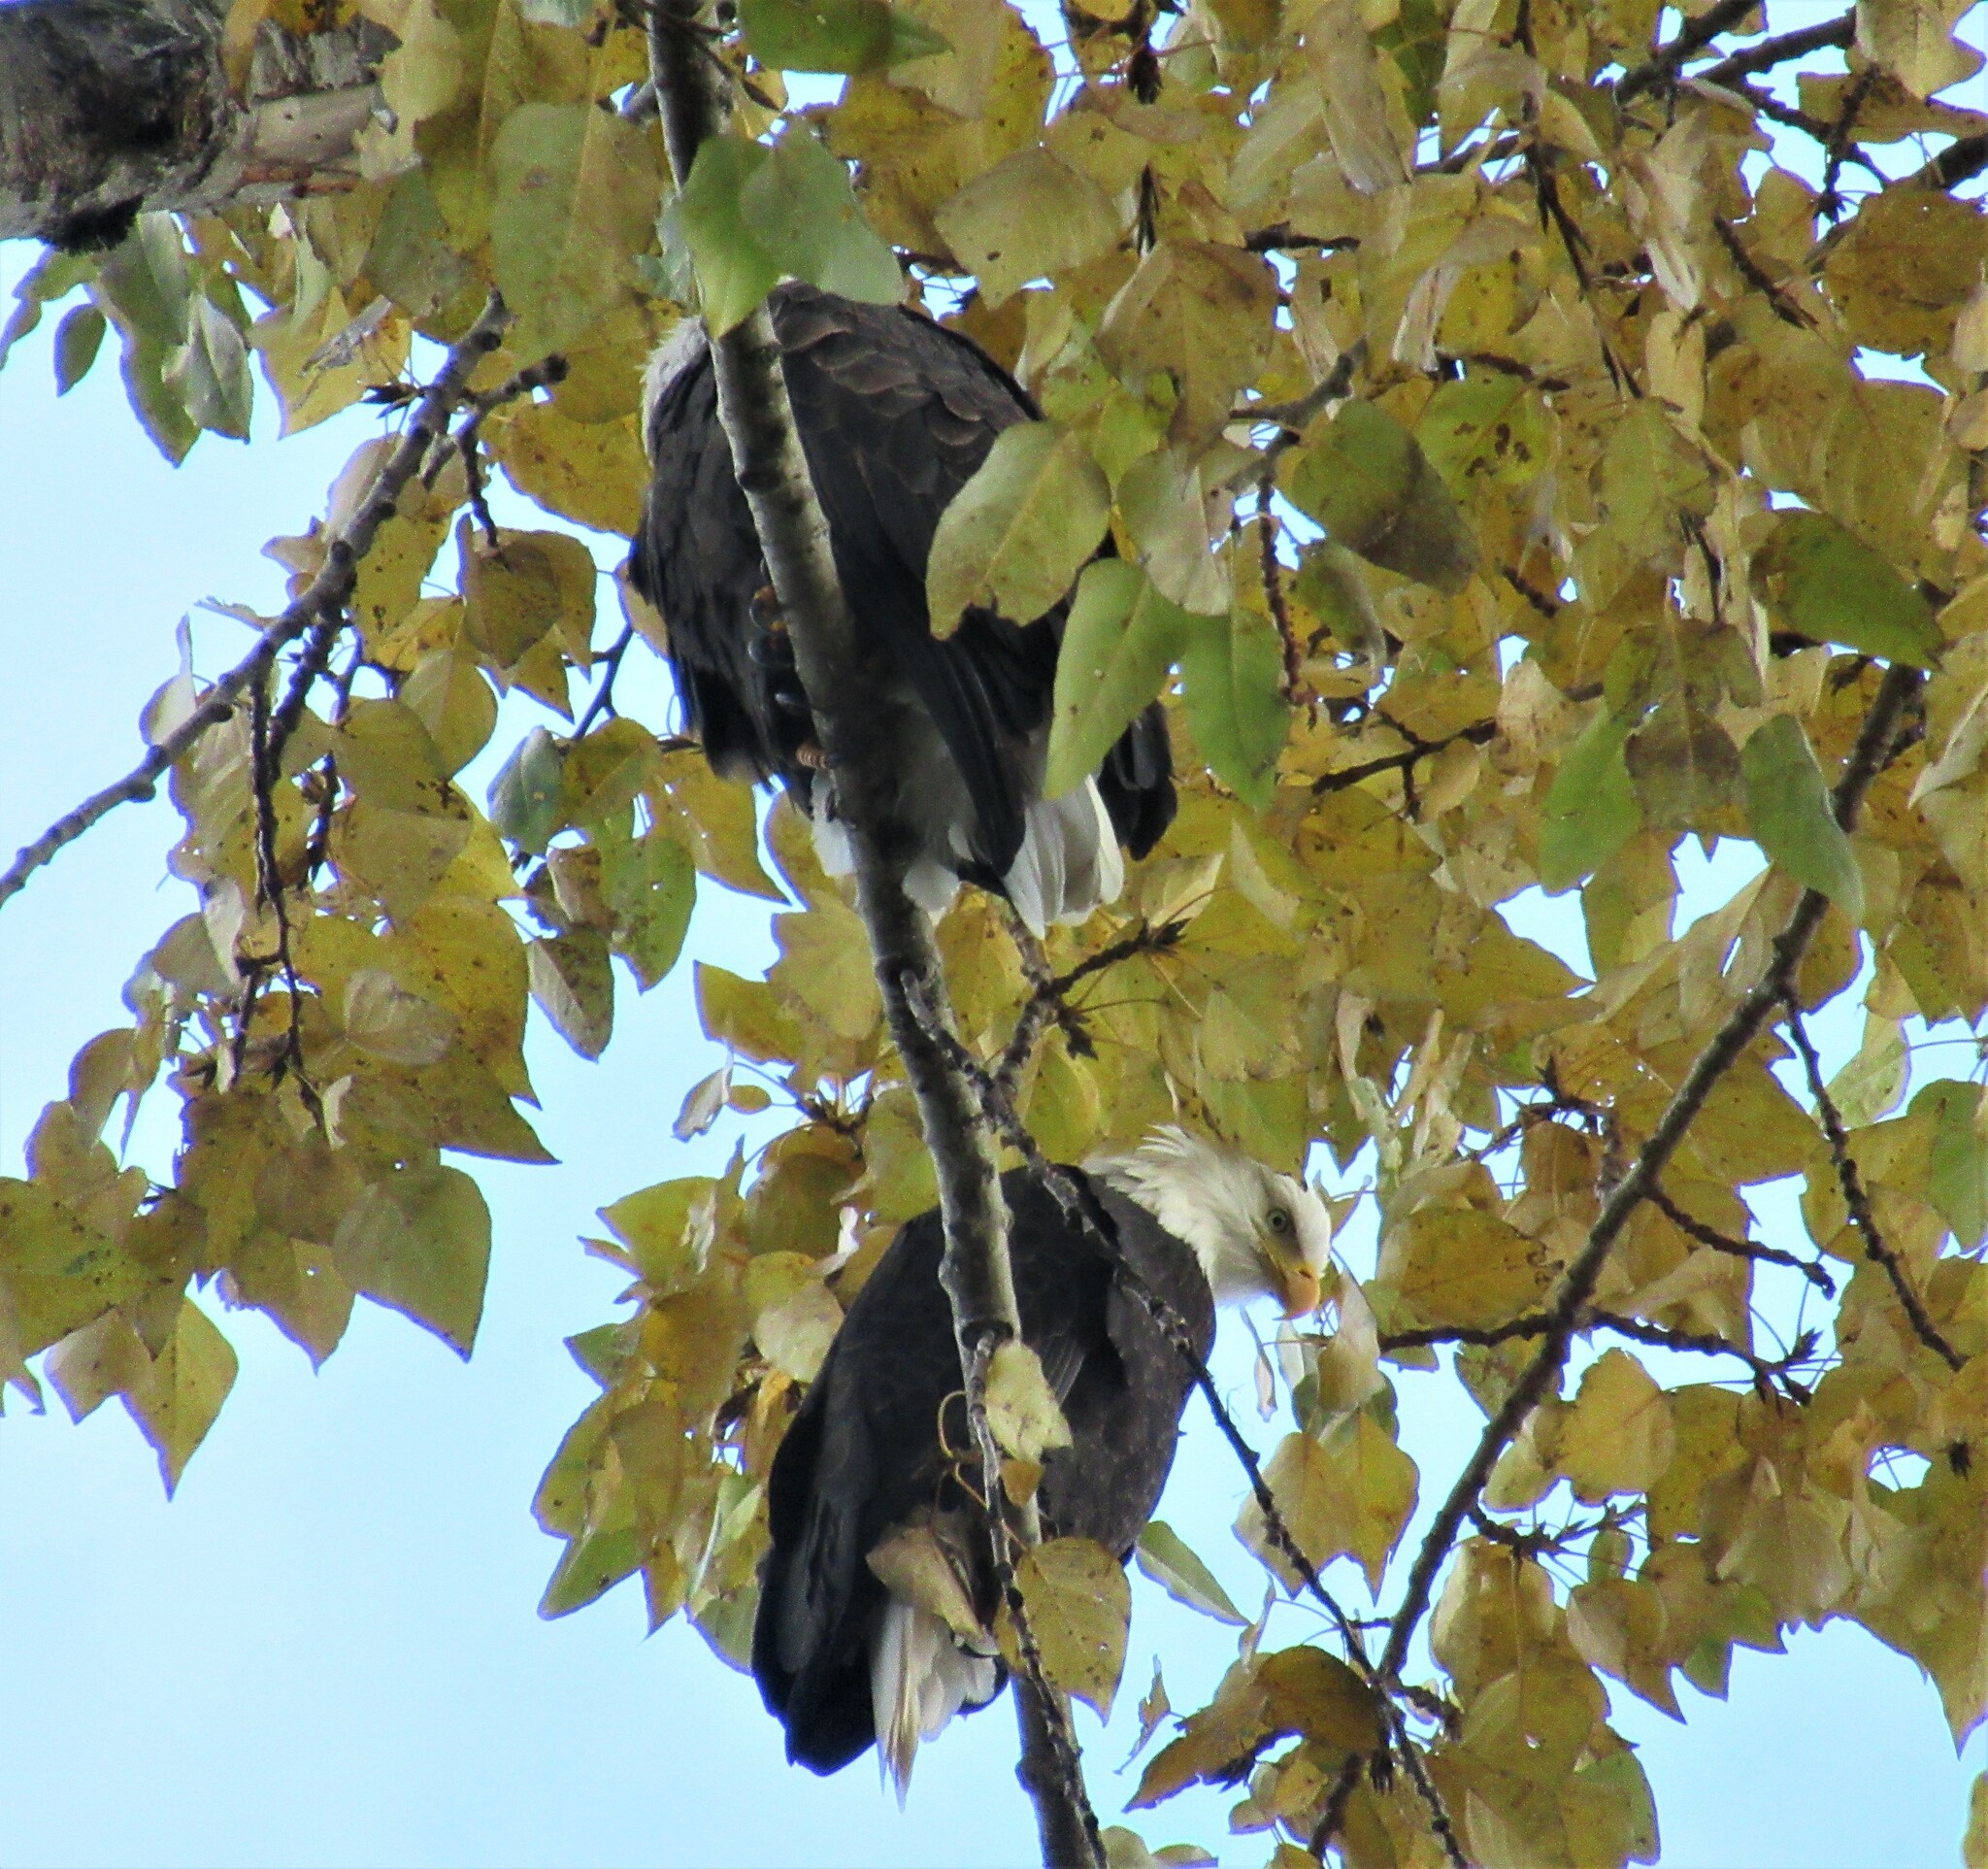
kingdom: Animalia
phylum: Chordata
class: Aves
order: Accipitriformes
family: Accipitridae
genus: Haliaeetus
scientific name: Haliaeetus leucocephalus
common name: Bald eagle
